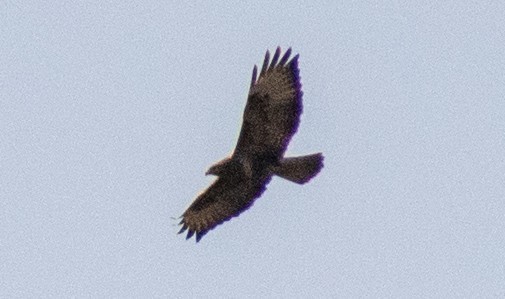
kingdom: Animalia
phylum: Chordata
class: Aves
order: Accipitriformes
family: Accipitridae
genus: Buteo
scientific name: Buteo buteo
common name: Common buzzard
